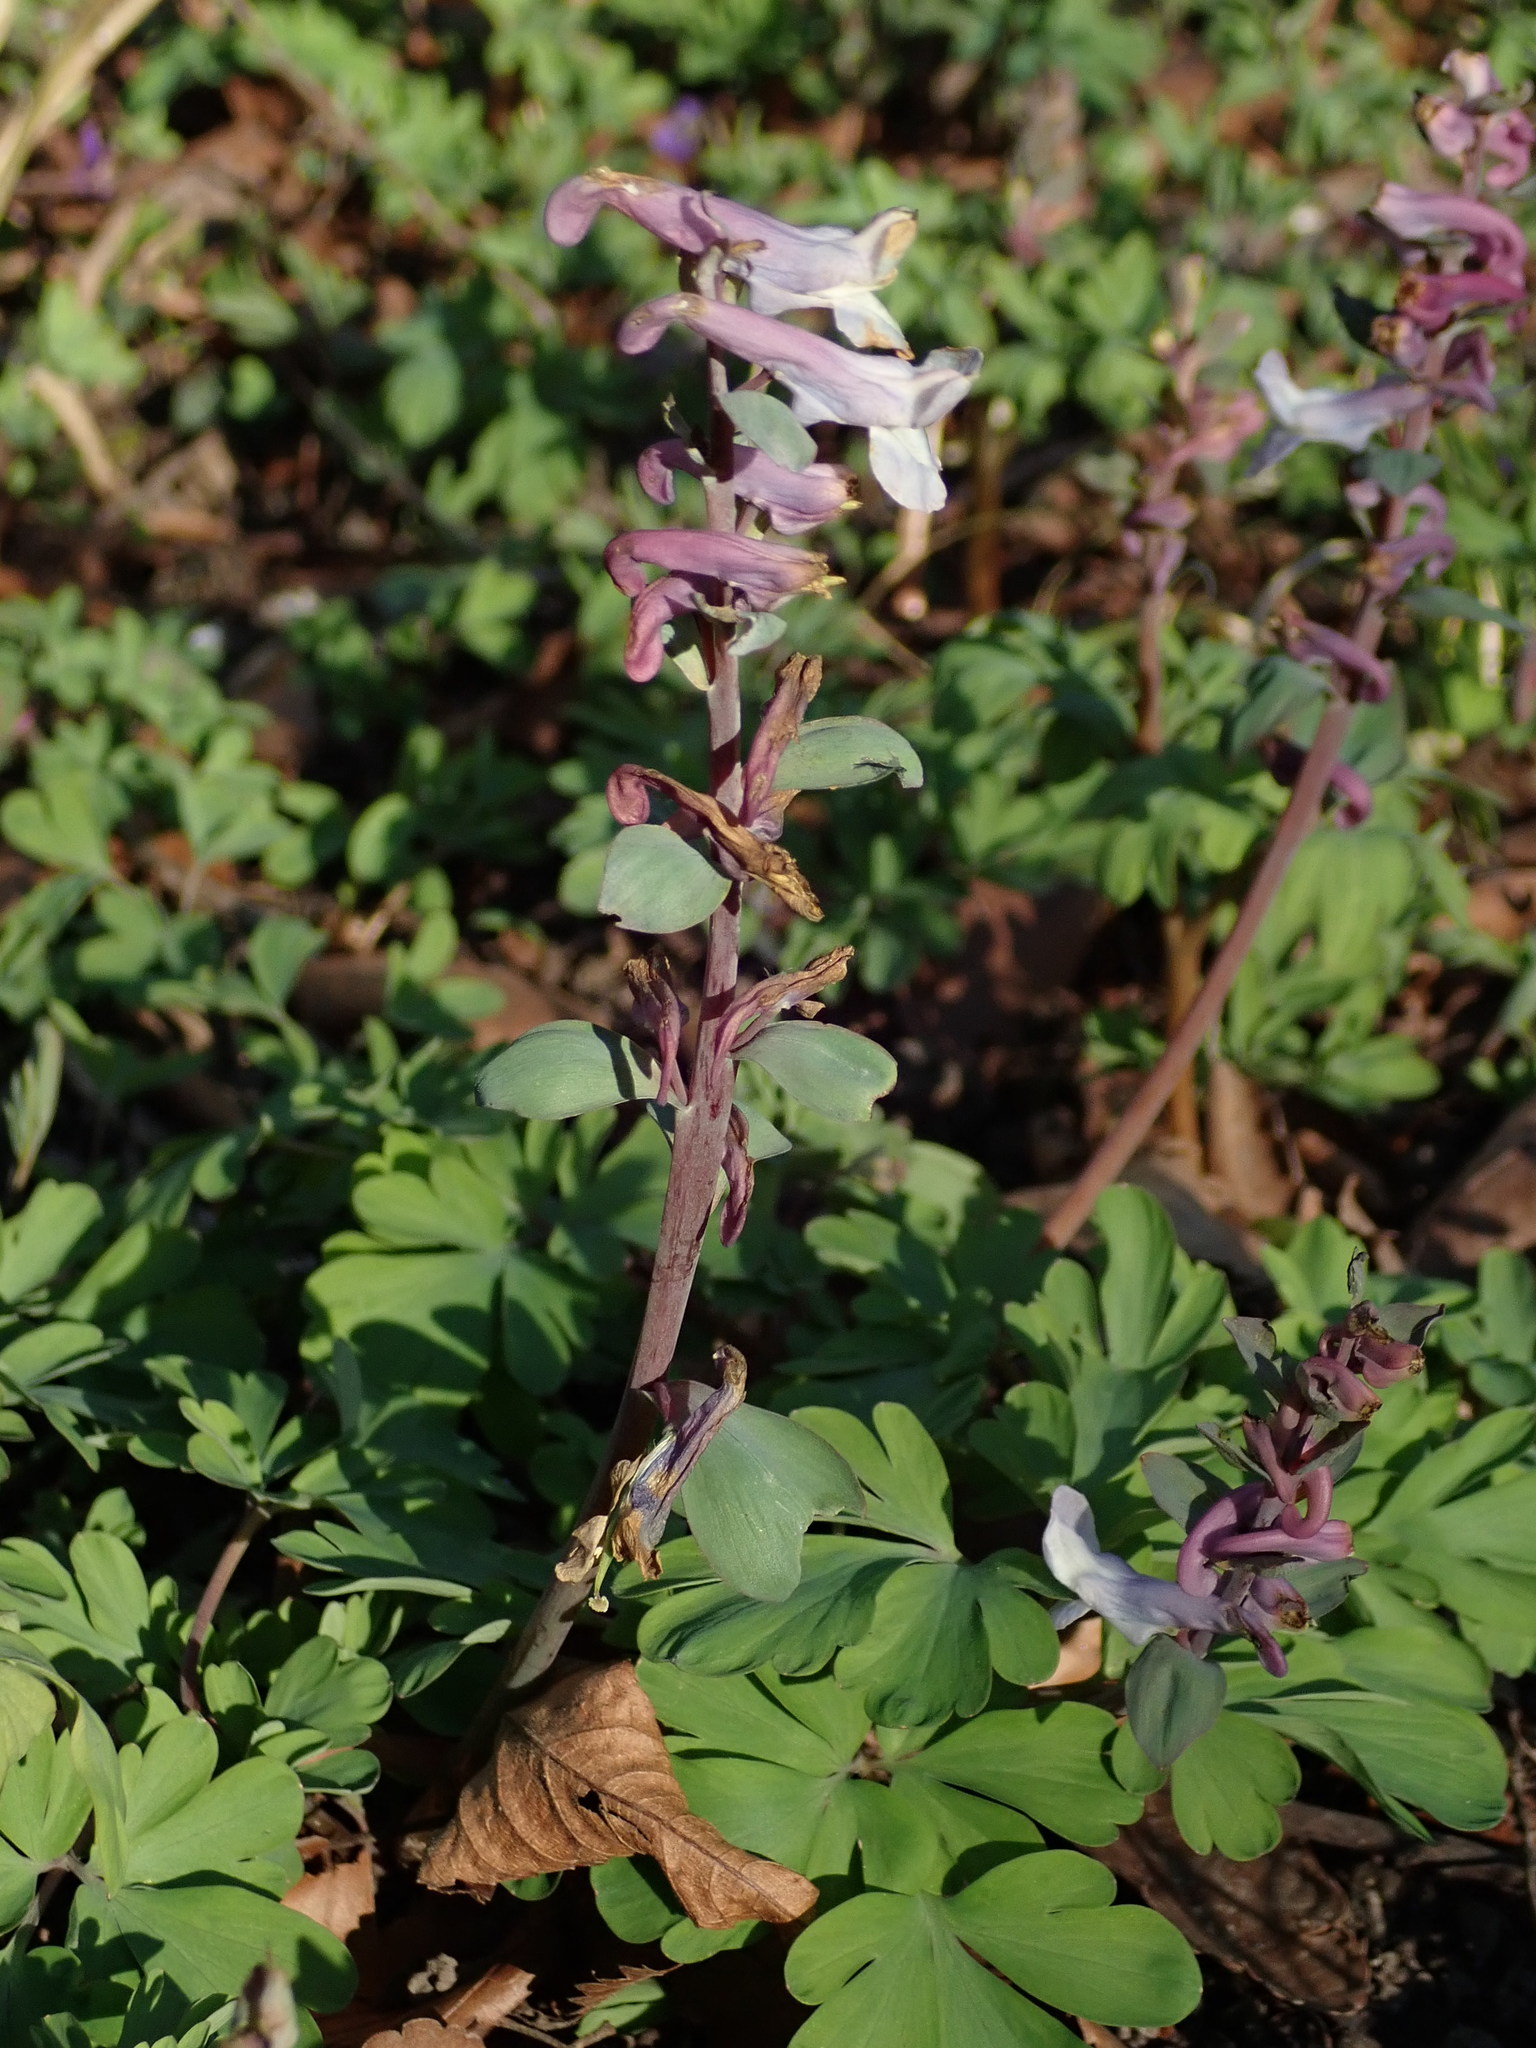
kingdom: Plantae
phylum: Tracheophyta
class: Magnoliopsida
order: Ranunculales
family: Papaveraceae
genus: Corydalis
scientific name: Corydalis cava
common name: Hollowroot
